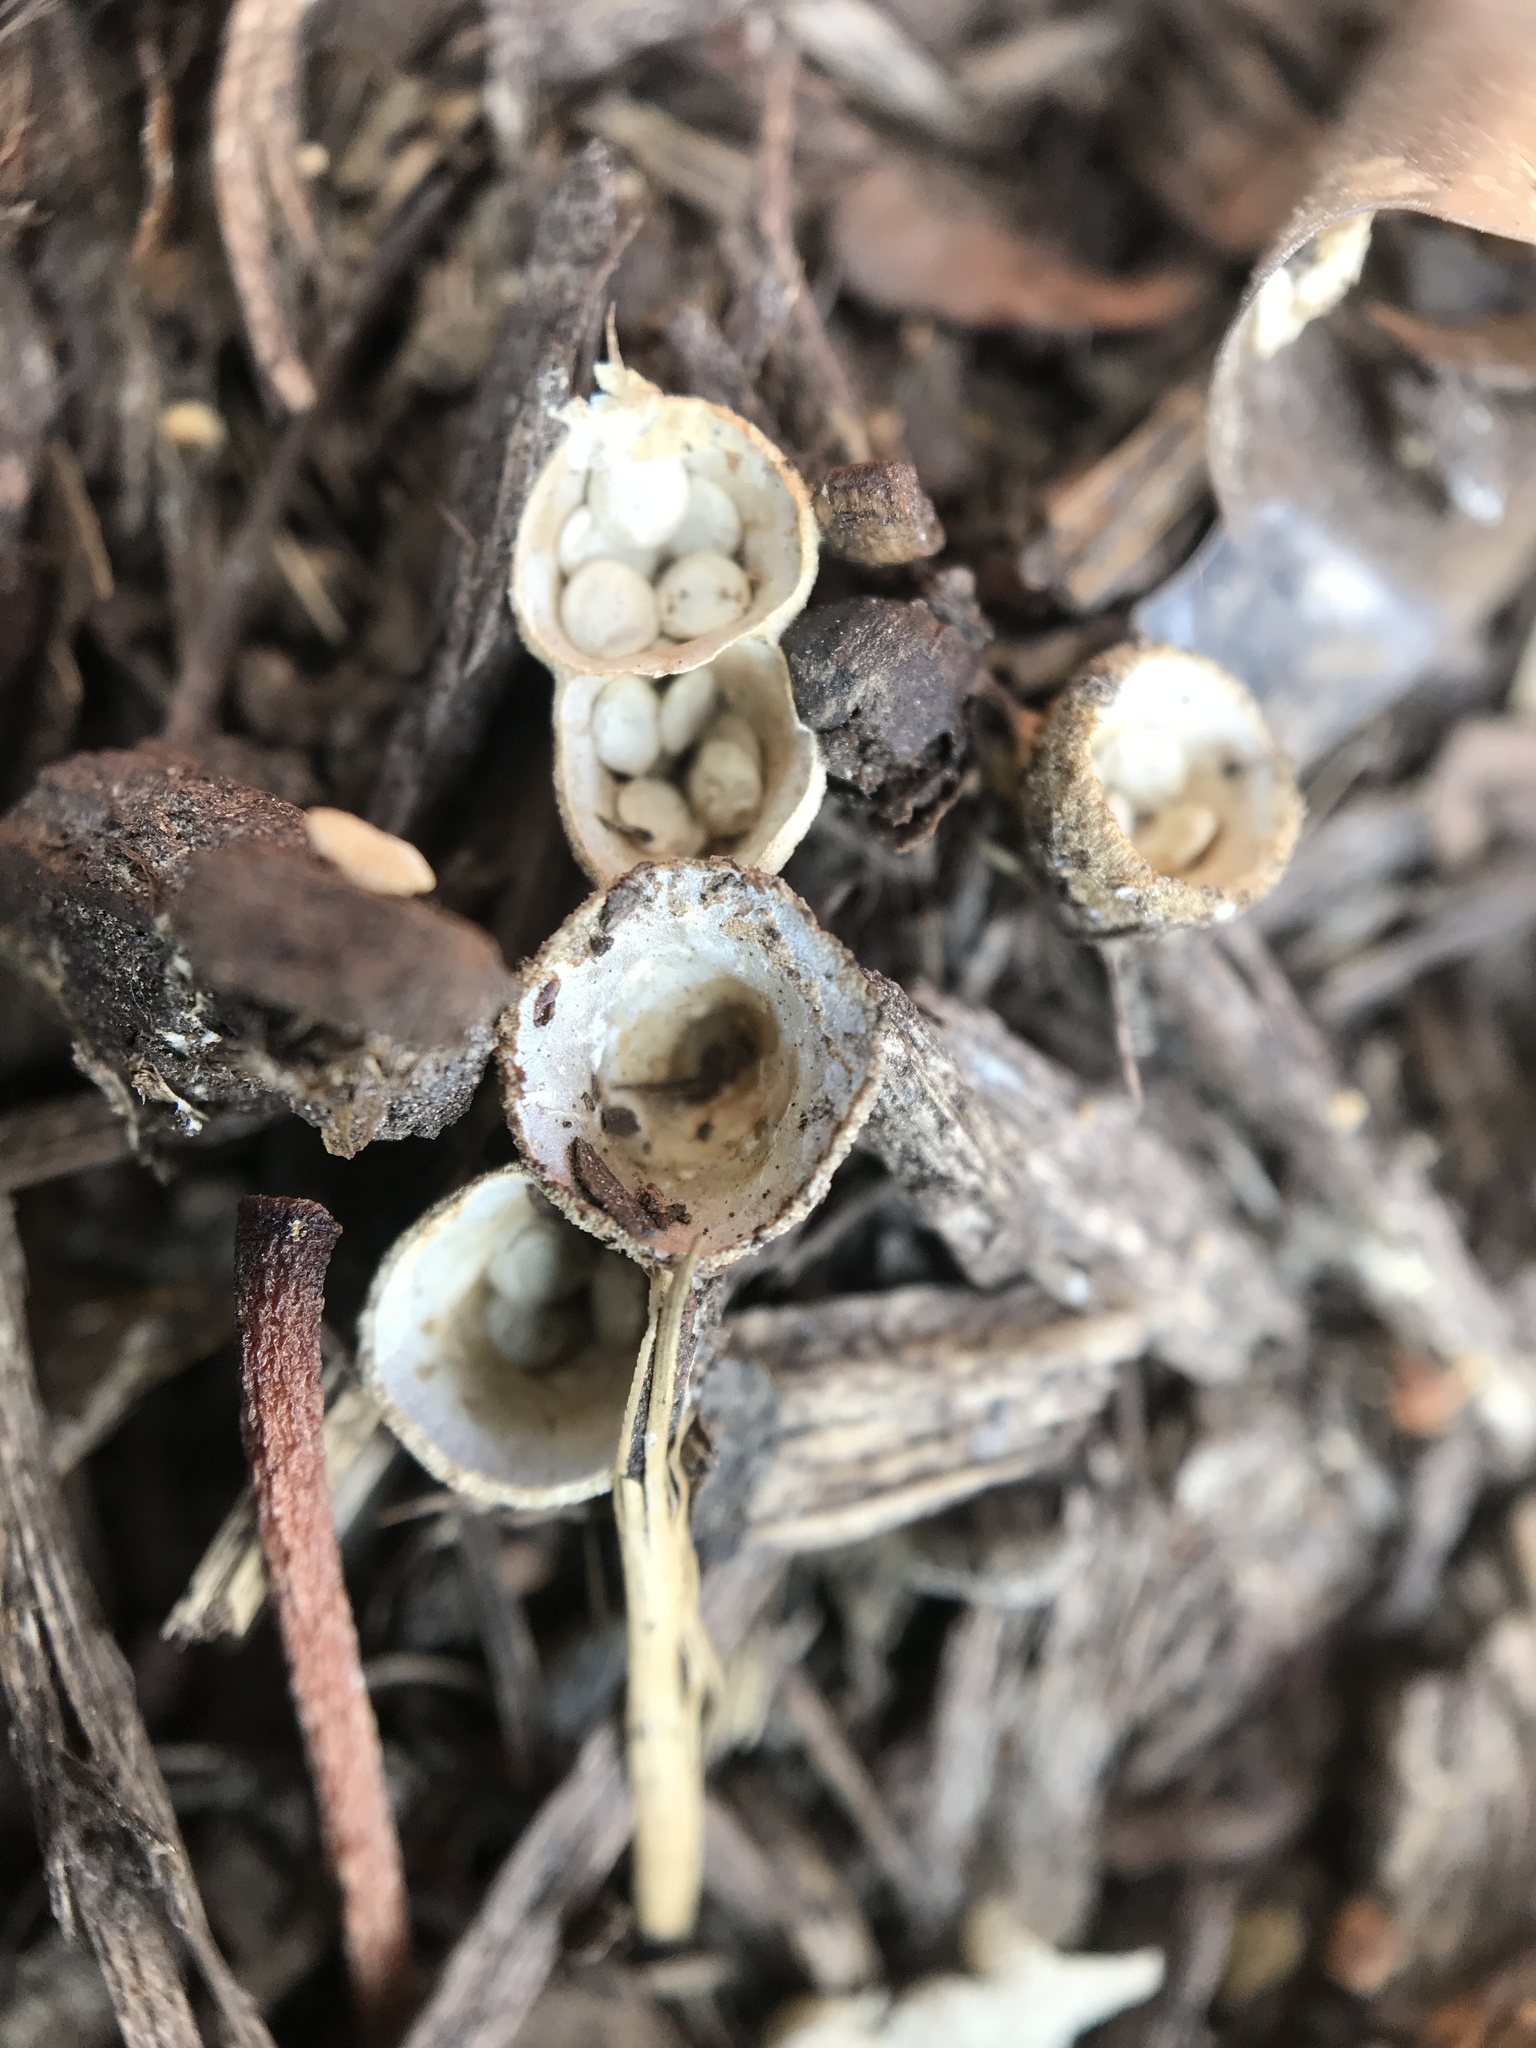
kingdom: Fungi
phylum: Basidiomycota
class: Agaricomycetes
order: Agaricales
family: Nidulariaceae
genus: Crucibulum
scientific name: Crucibulum laeve
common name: Common bird's nest
